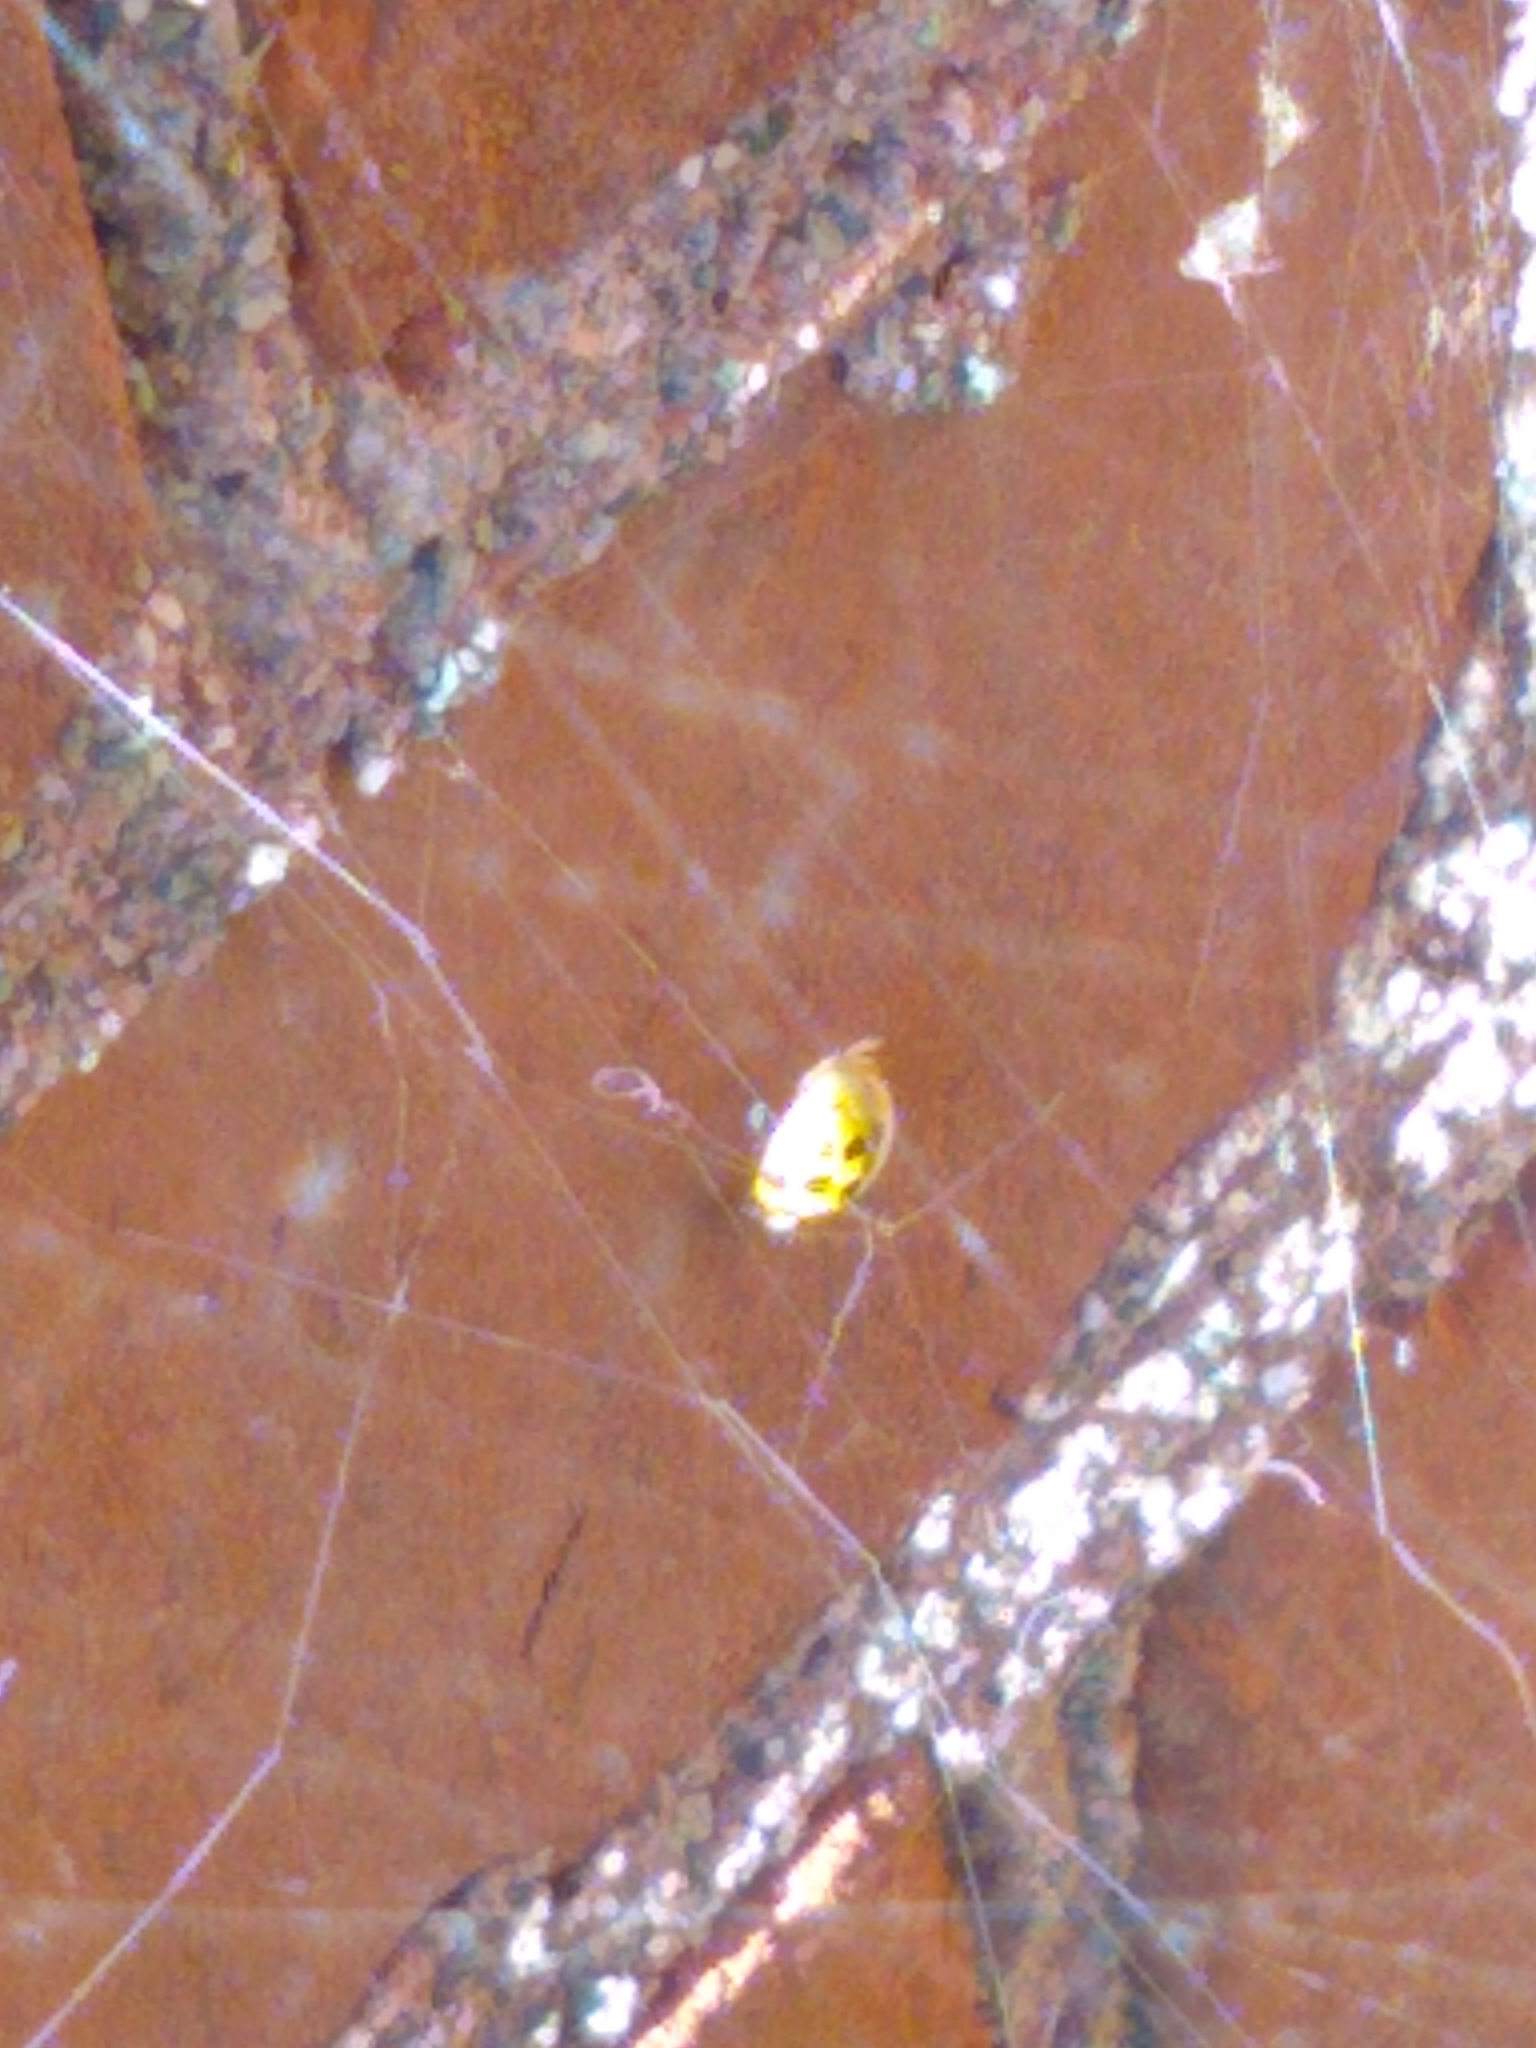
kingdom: Animalia
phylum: Arthropoda
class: Insecta
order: Coleoptera
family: Coccinellidae
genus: Harmonia
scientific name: Harmonia axyridis
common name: Harlequin ladybird
